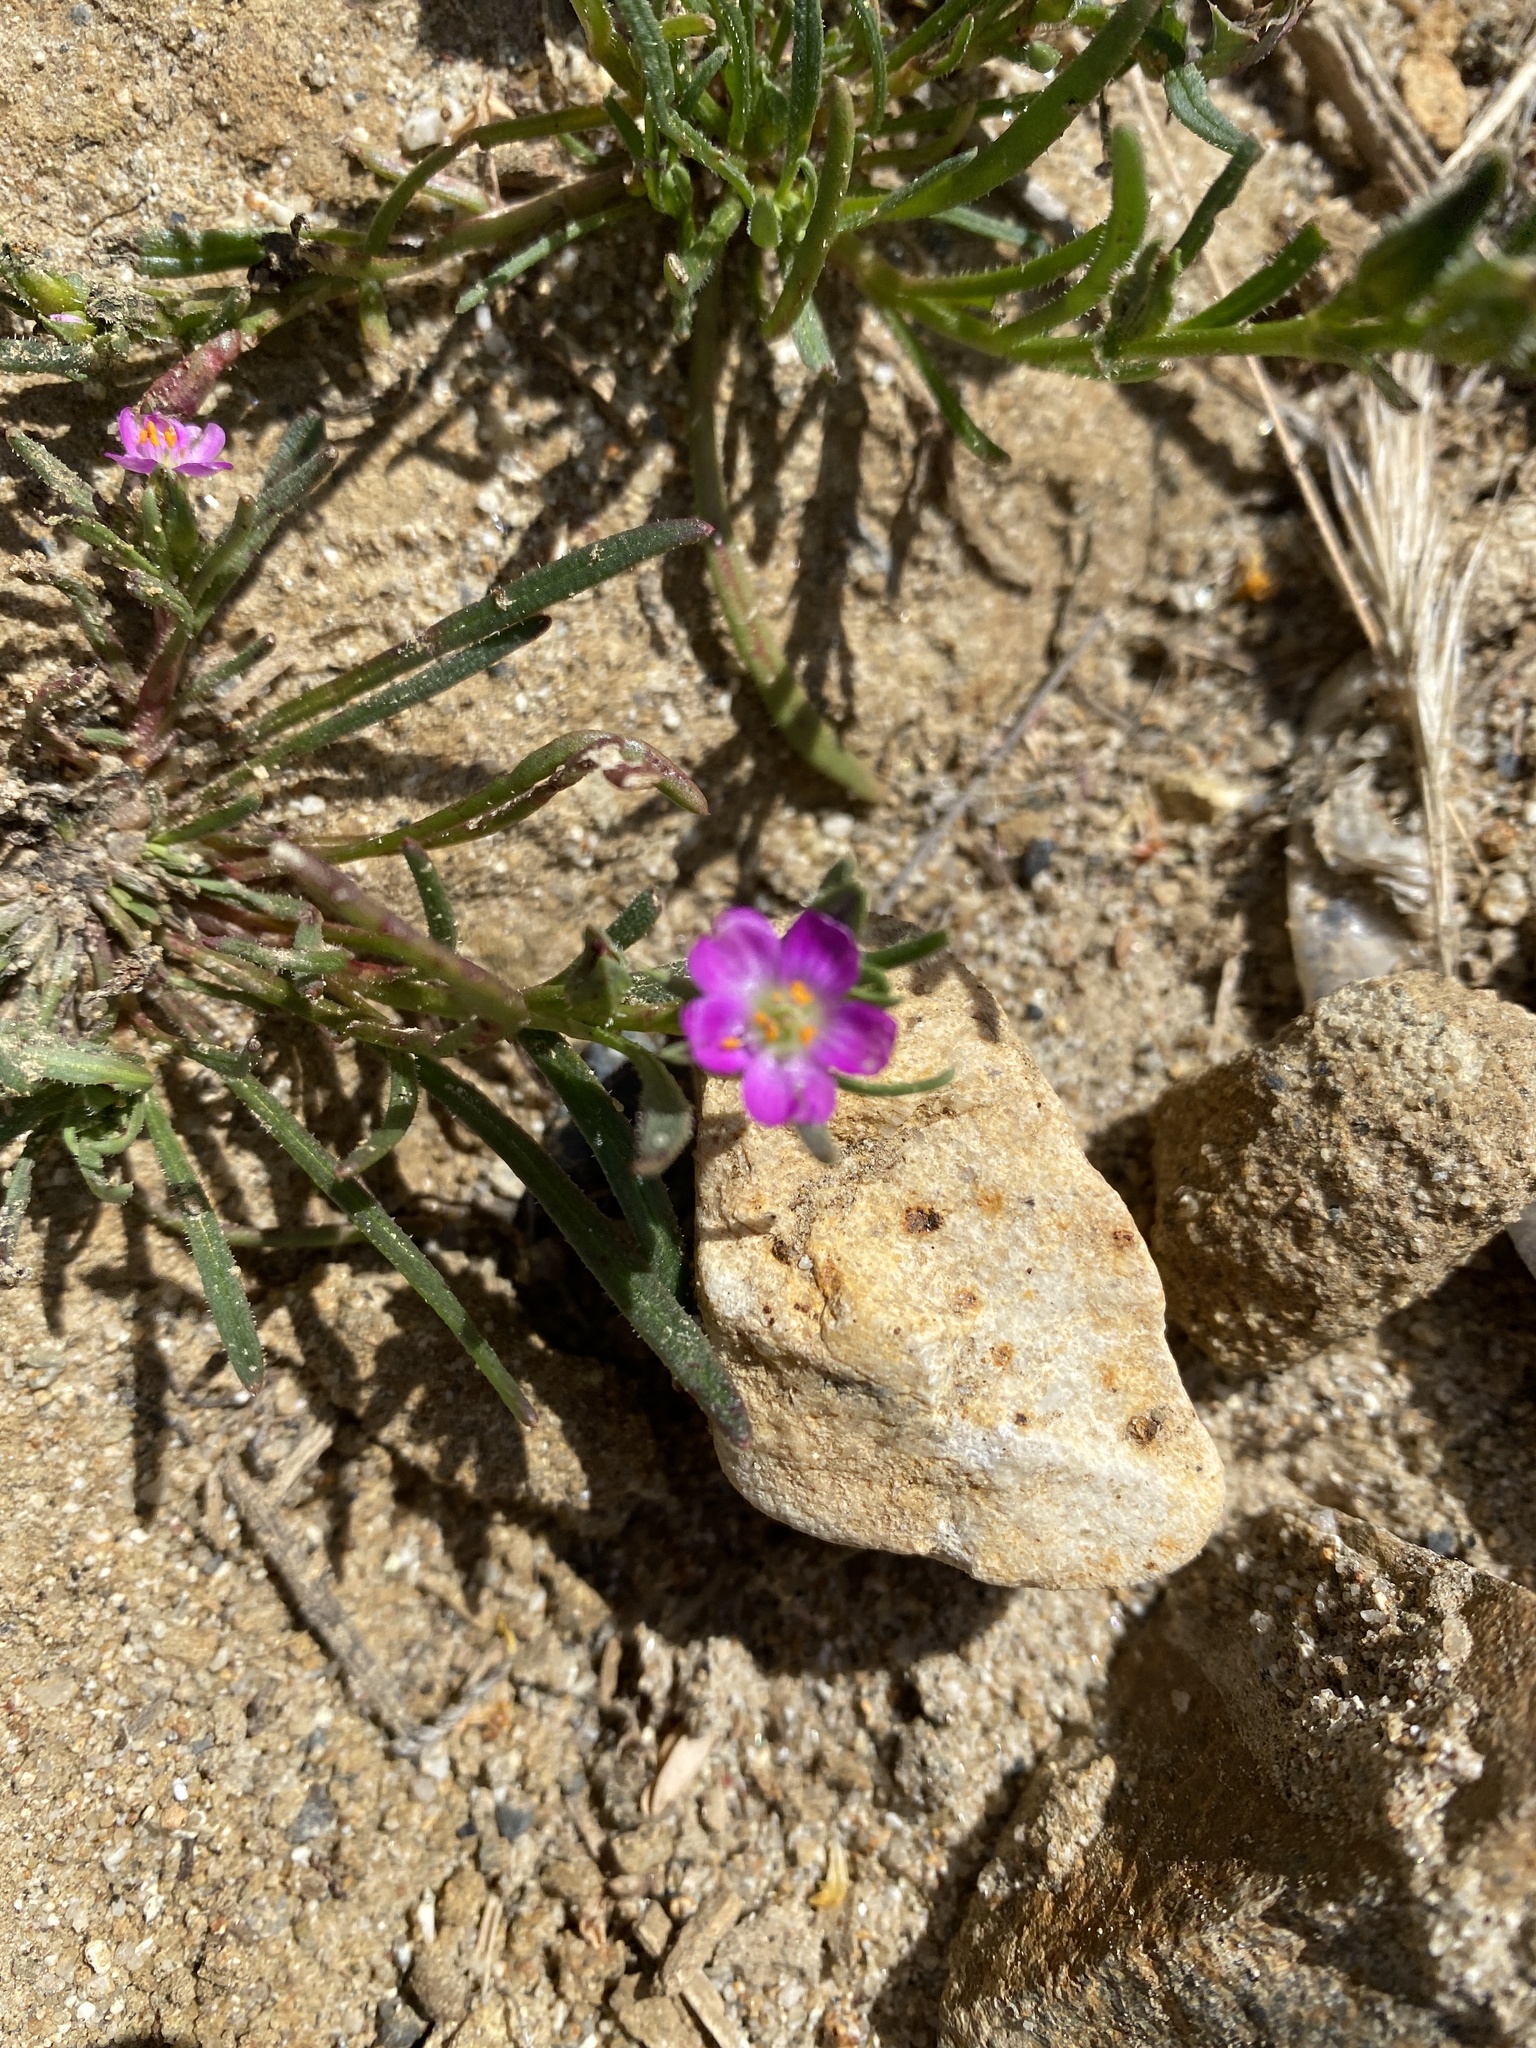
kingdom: Plantae
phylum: Tracheophyta
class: Magnoliopsida
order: Caryophyllales
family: Montiaceae
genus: Calandrinia
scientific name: Calandrinia menziesii
